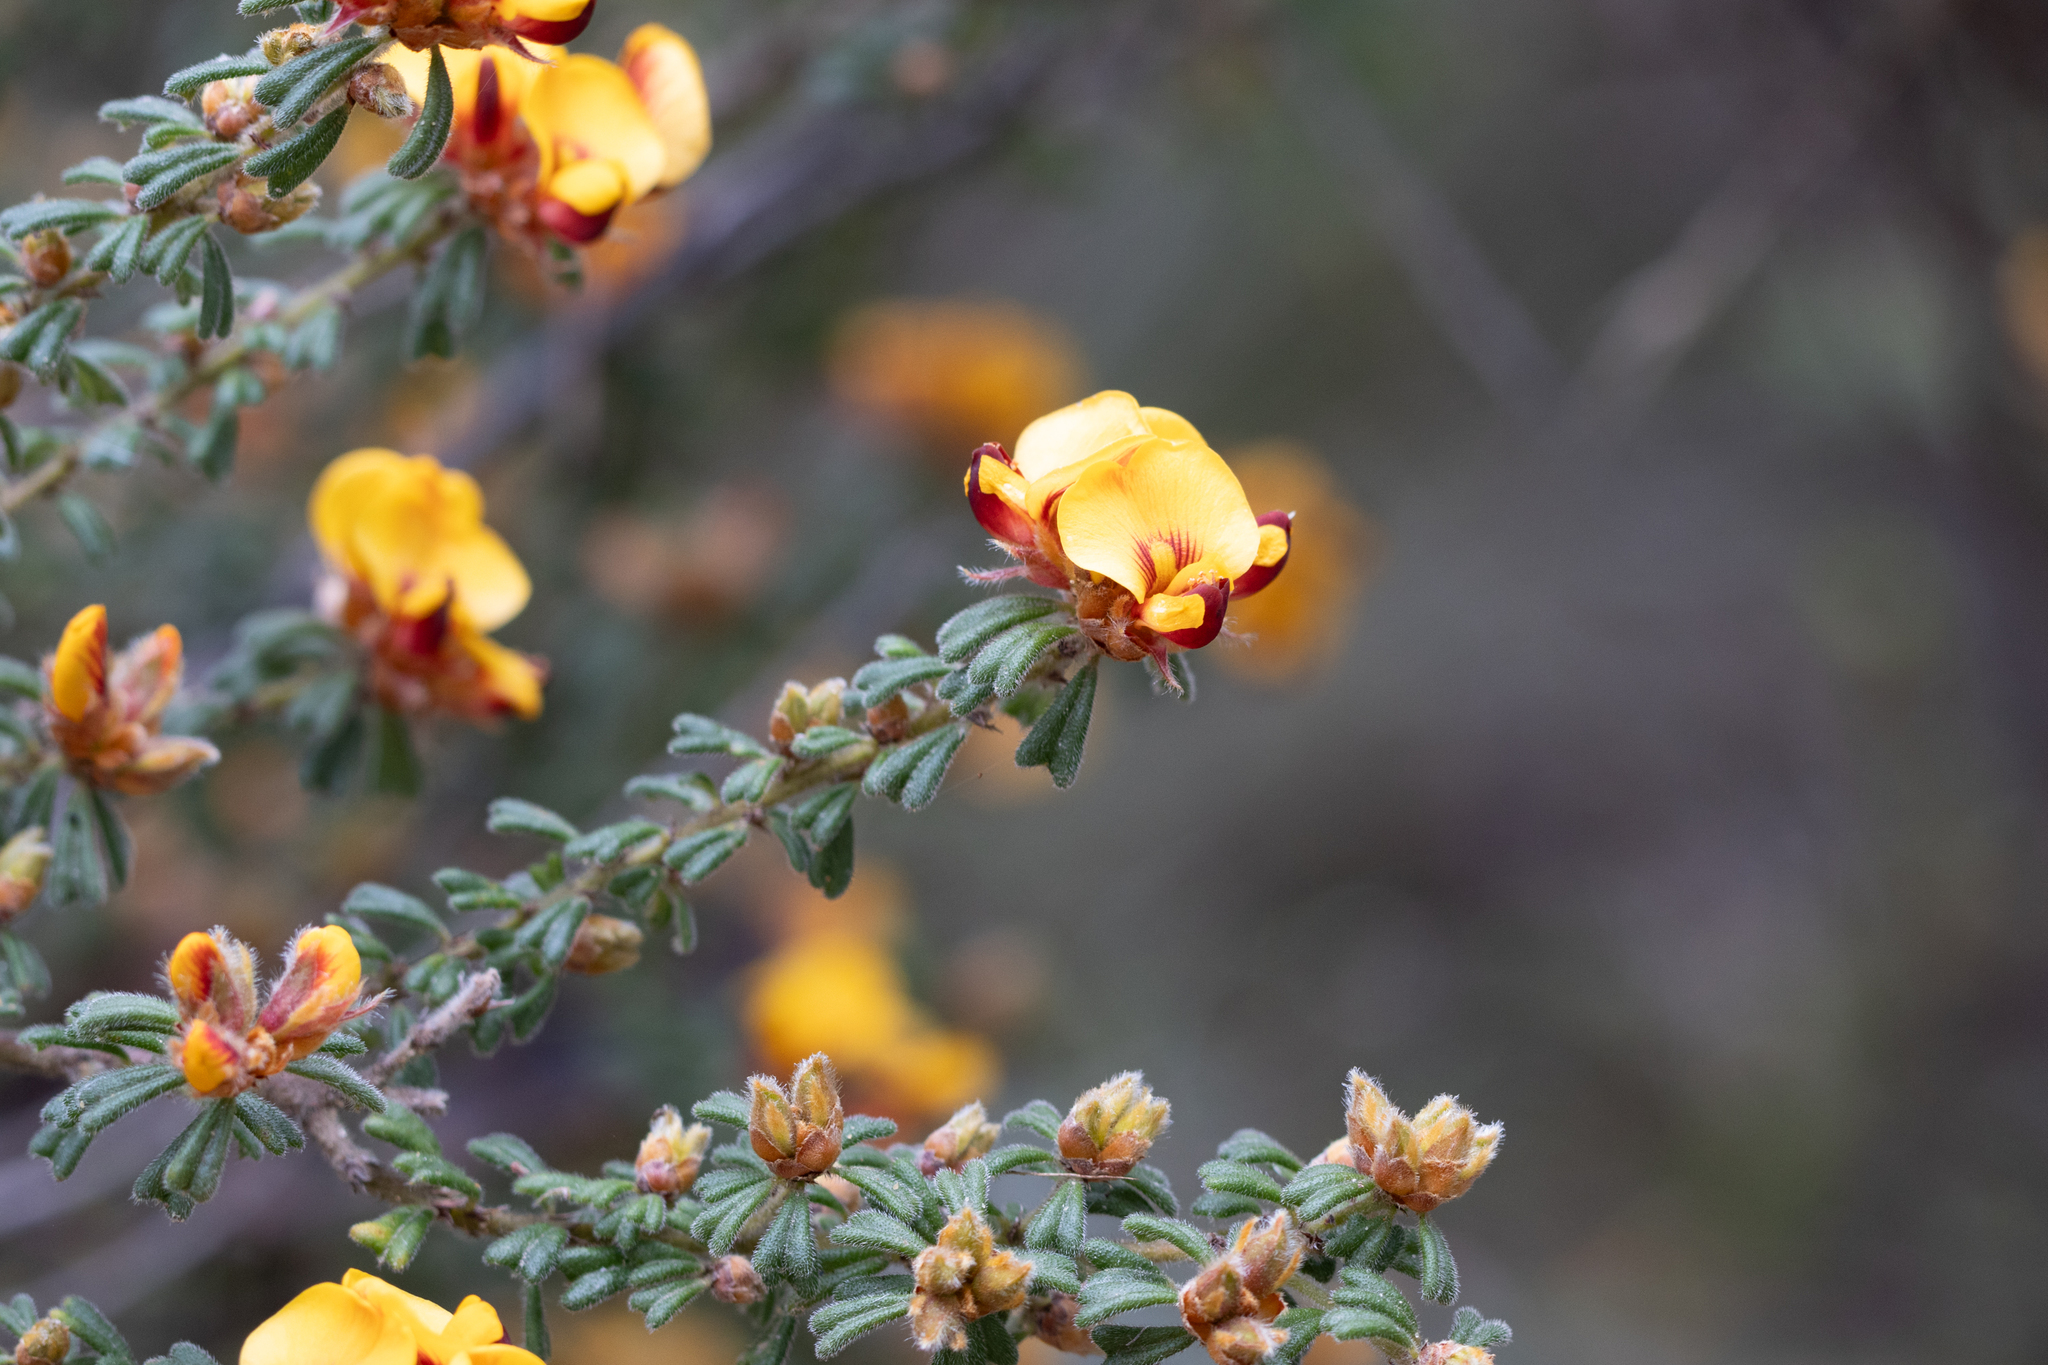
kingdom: Plantae
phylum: Tracheophyta
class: Magnoliopsida
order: Fabales
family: Fabaceae
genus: Pultenaea
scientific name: Pultenaea scabra
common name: Rough bush-pea
